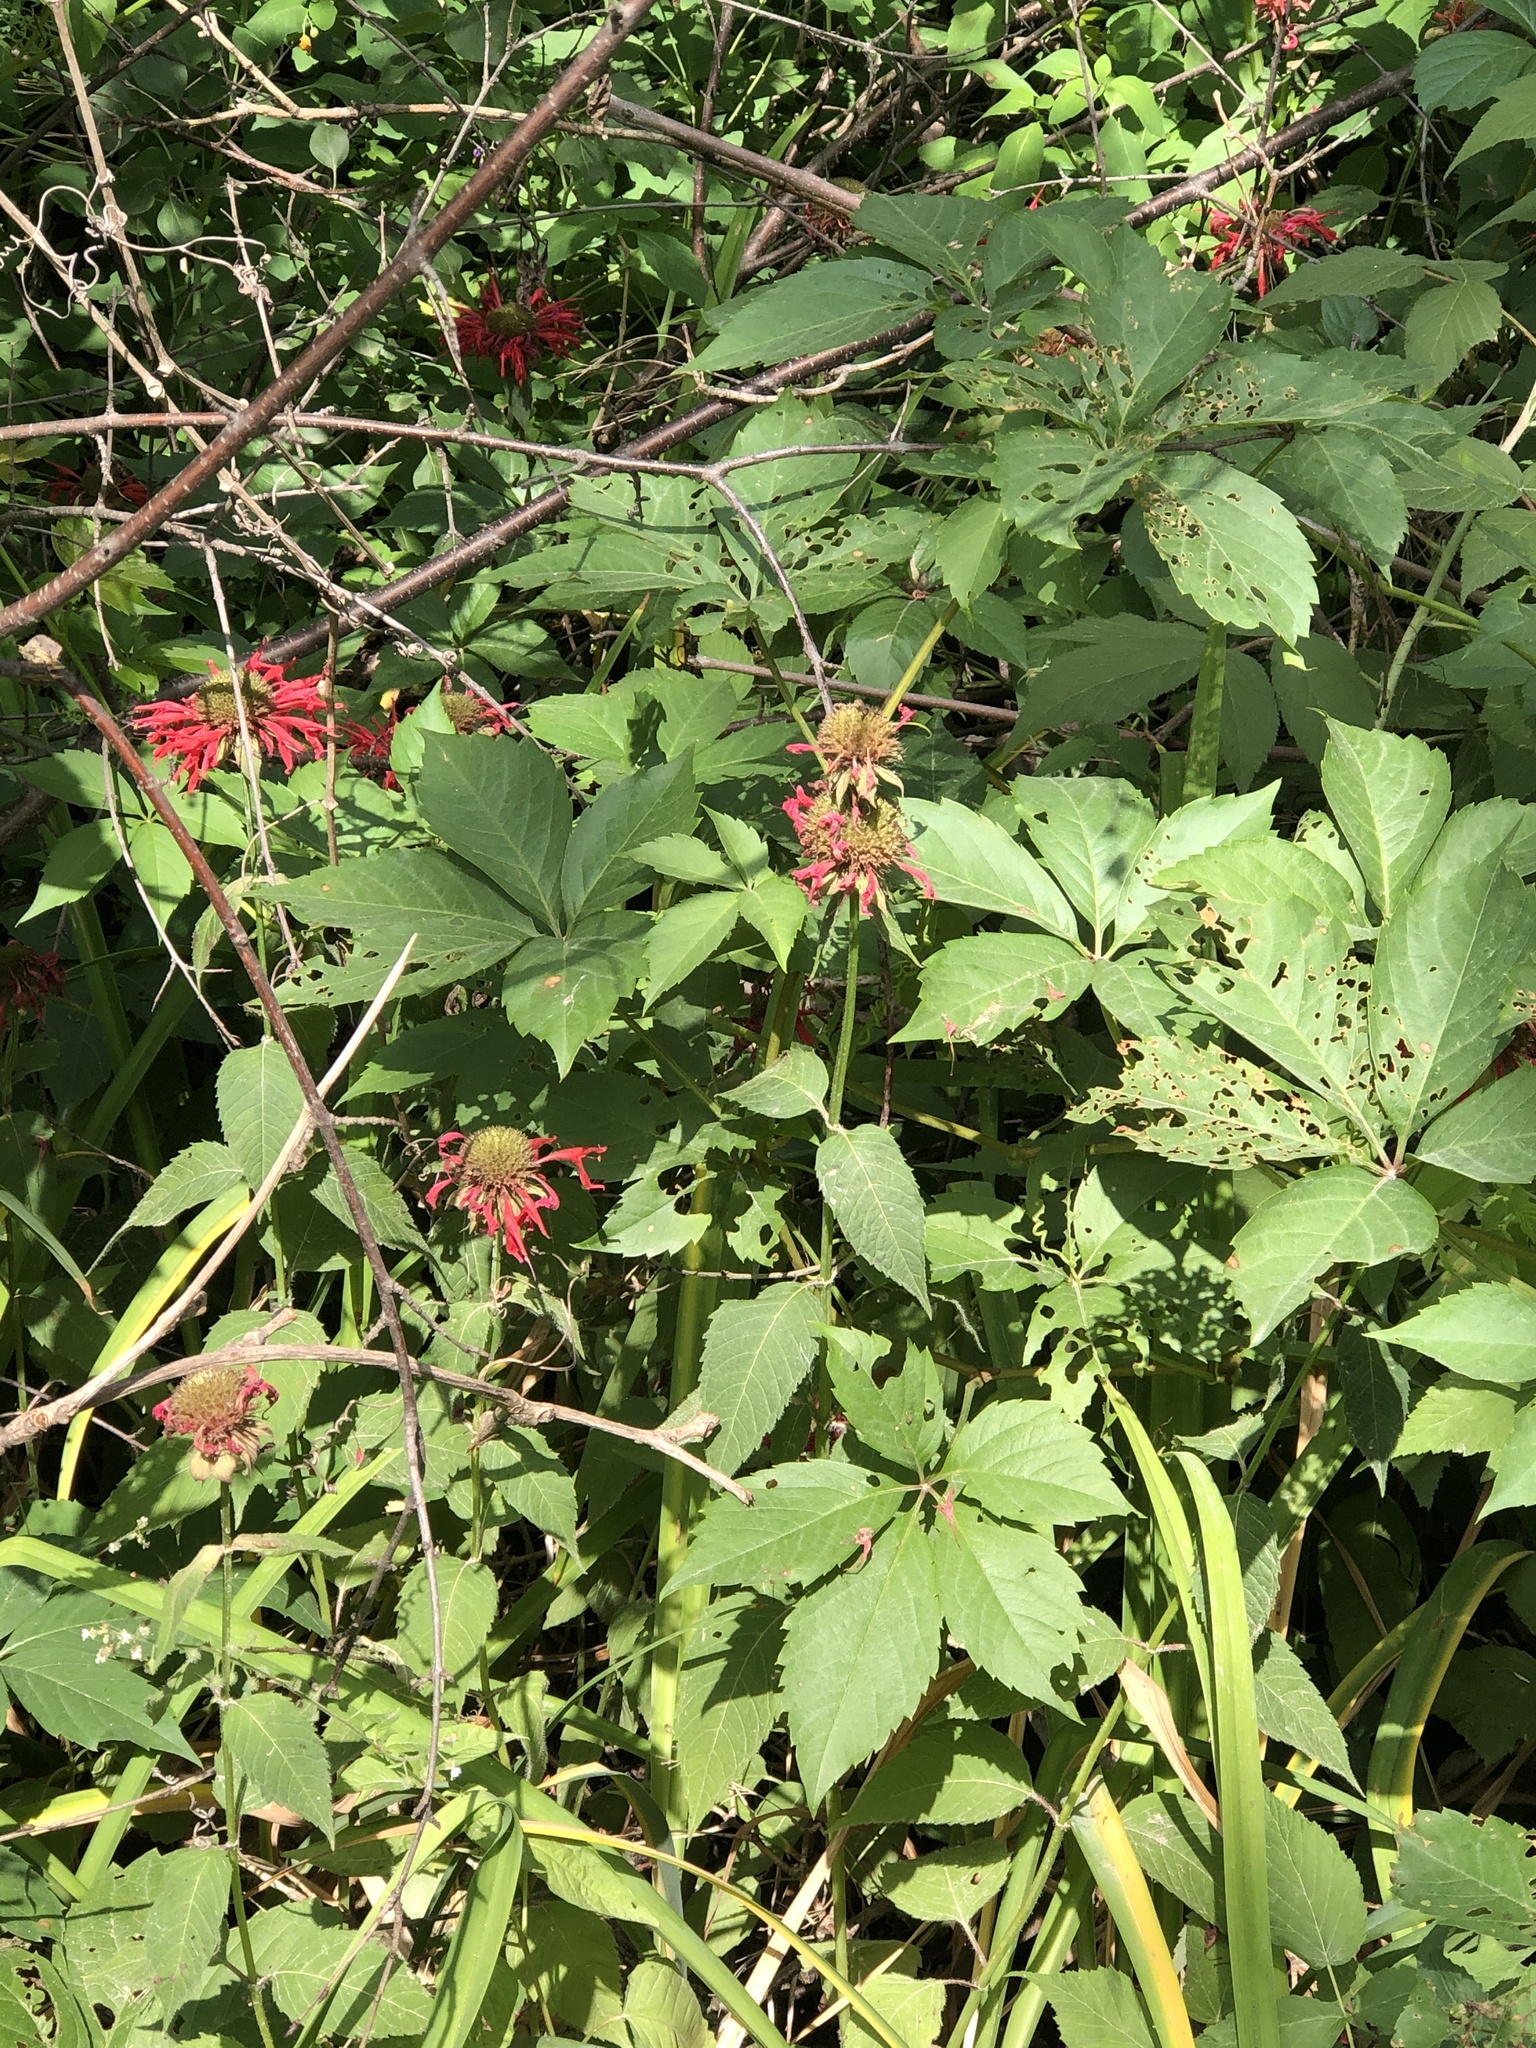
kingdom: Plantae
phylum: Tracheophyta
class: Magnoliopsida
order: Lamiales
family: Lamiaceae
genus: Monarda
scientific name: Monarda didyma
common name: Beebalm
